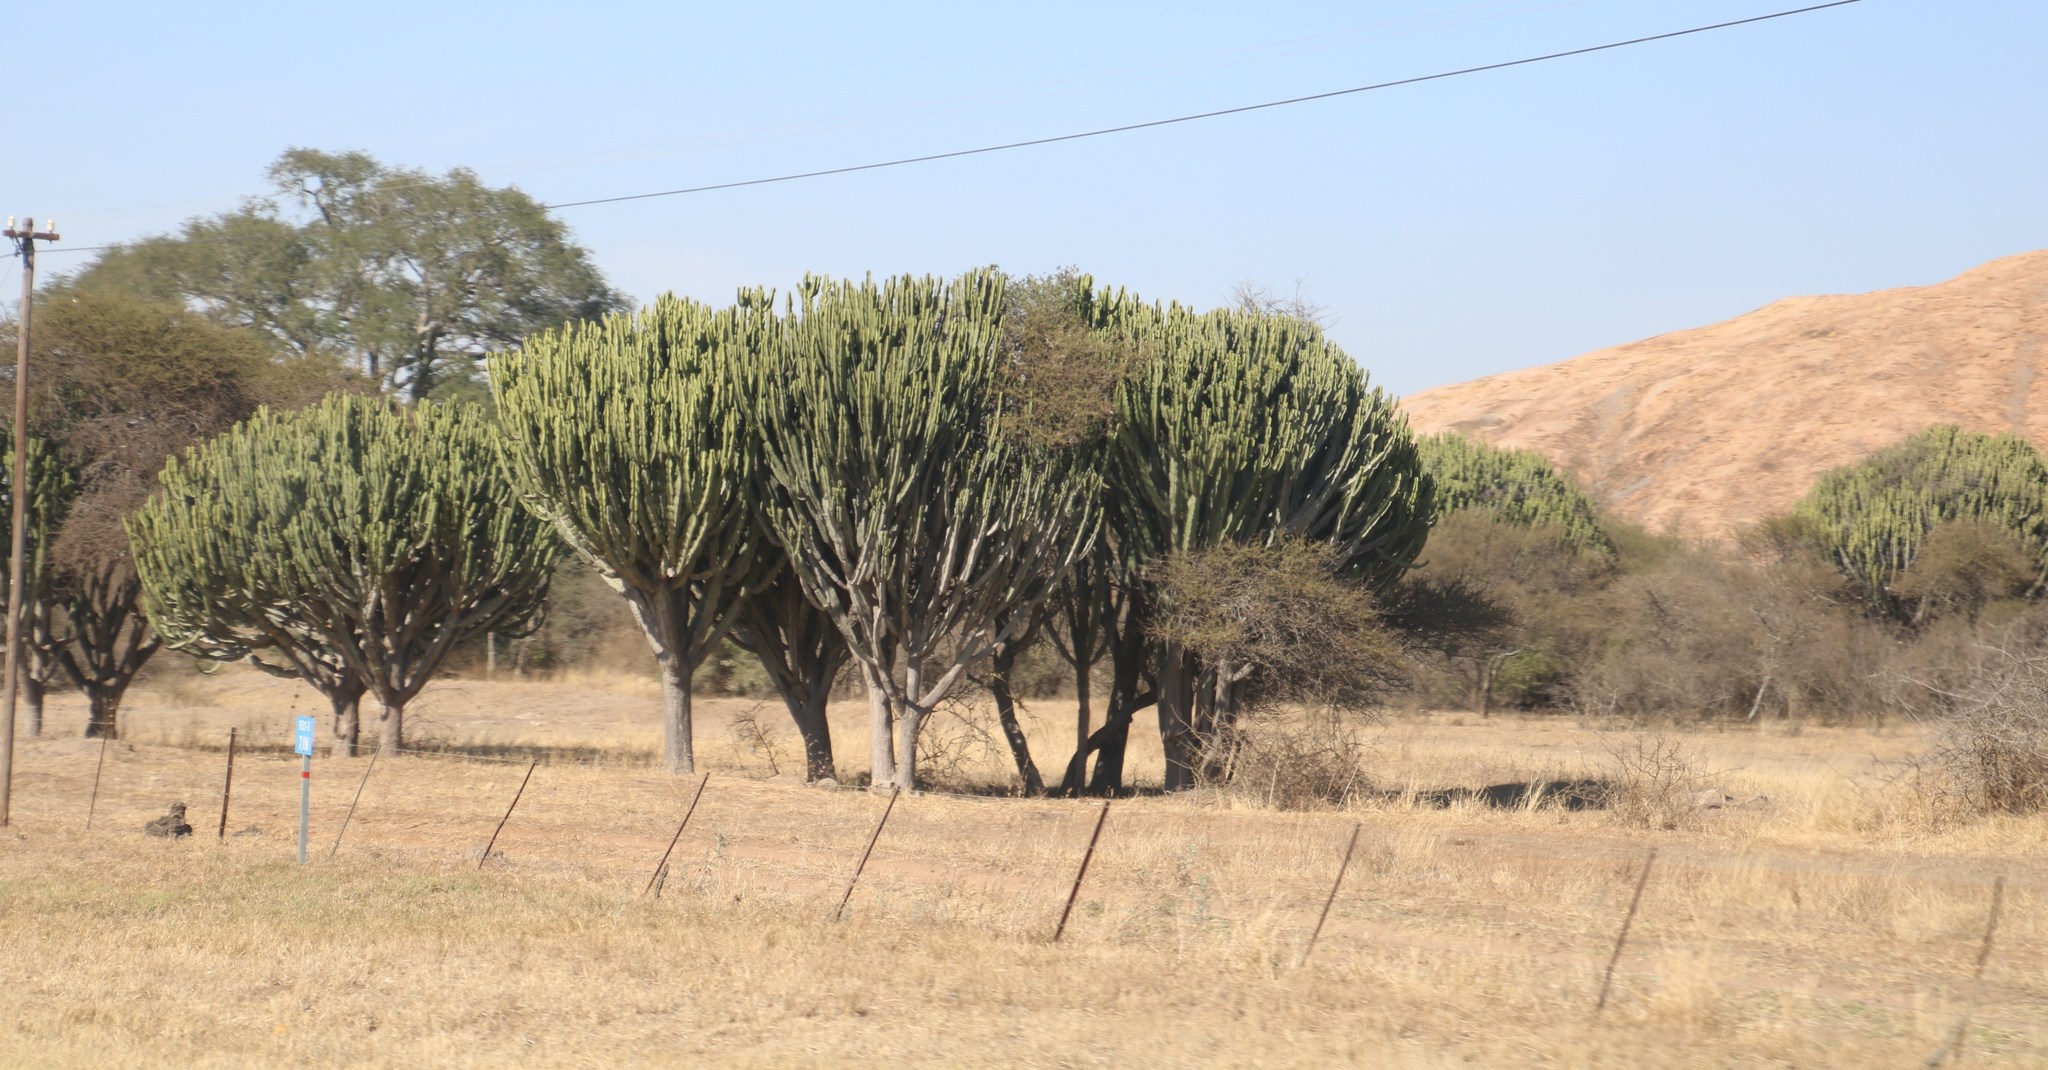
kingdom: Plantae
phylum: Tracheophyta
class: Magnoliopsida
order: Malpighiales
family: Euphorbiaceae
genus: Euphorbia
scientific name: Euphorbia ingens
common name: Cactus spurge
